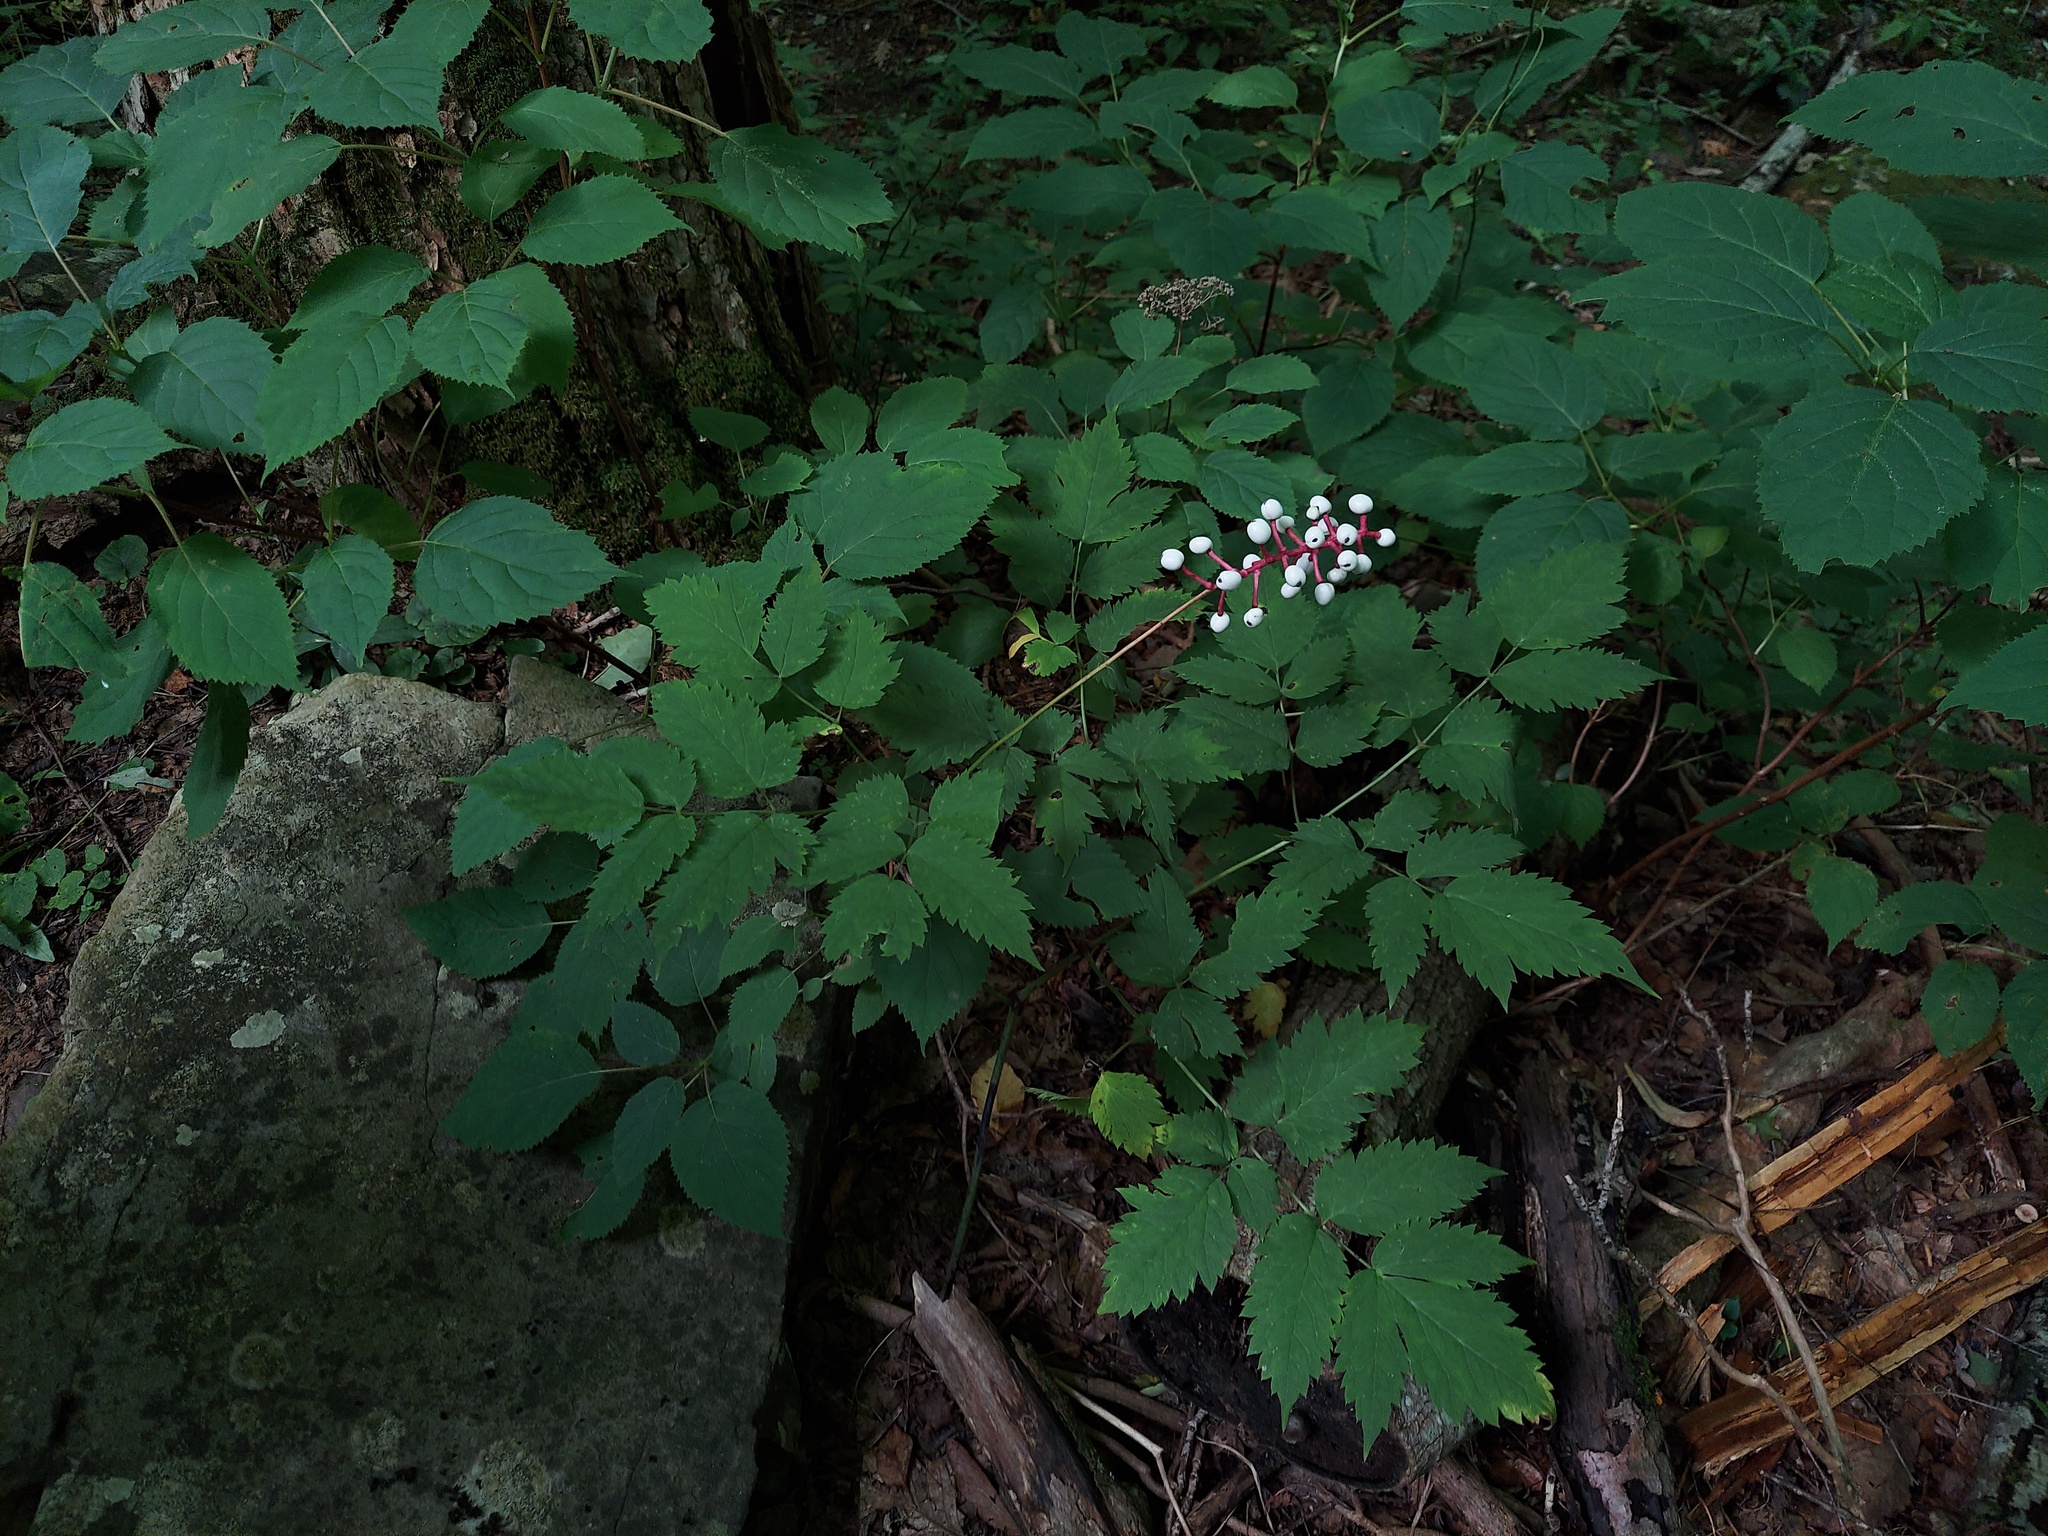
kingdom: Plantae
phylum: Tracheophyta
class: Magnoliopsida
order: Ranunculales
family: Ranunculaceae
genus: Actaea
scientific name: Actaea pachypoda
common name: Doll's-eyes
